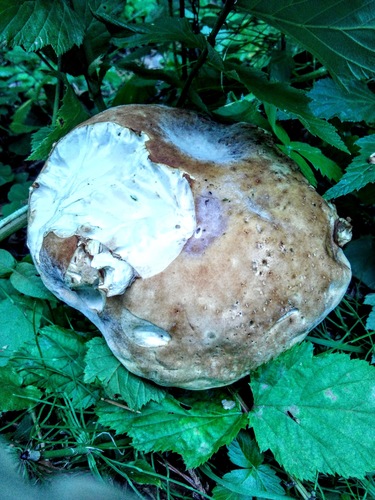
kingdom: Fungi
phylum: Basidiomycota
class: Agaricomycetes
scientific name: Agaricomycetes
